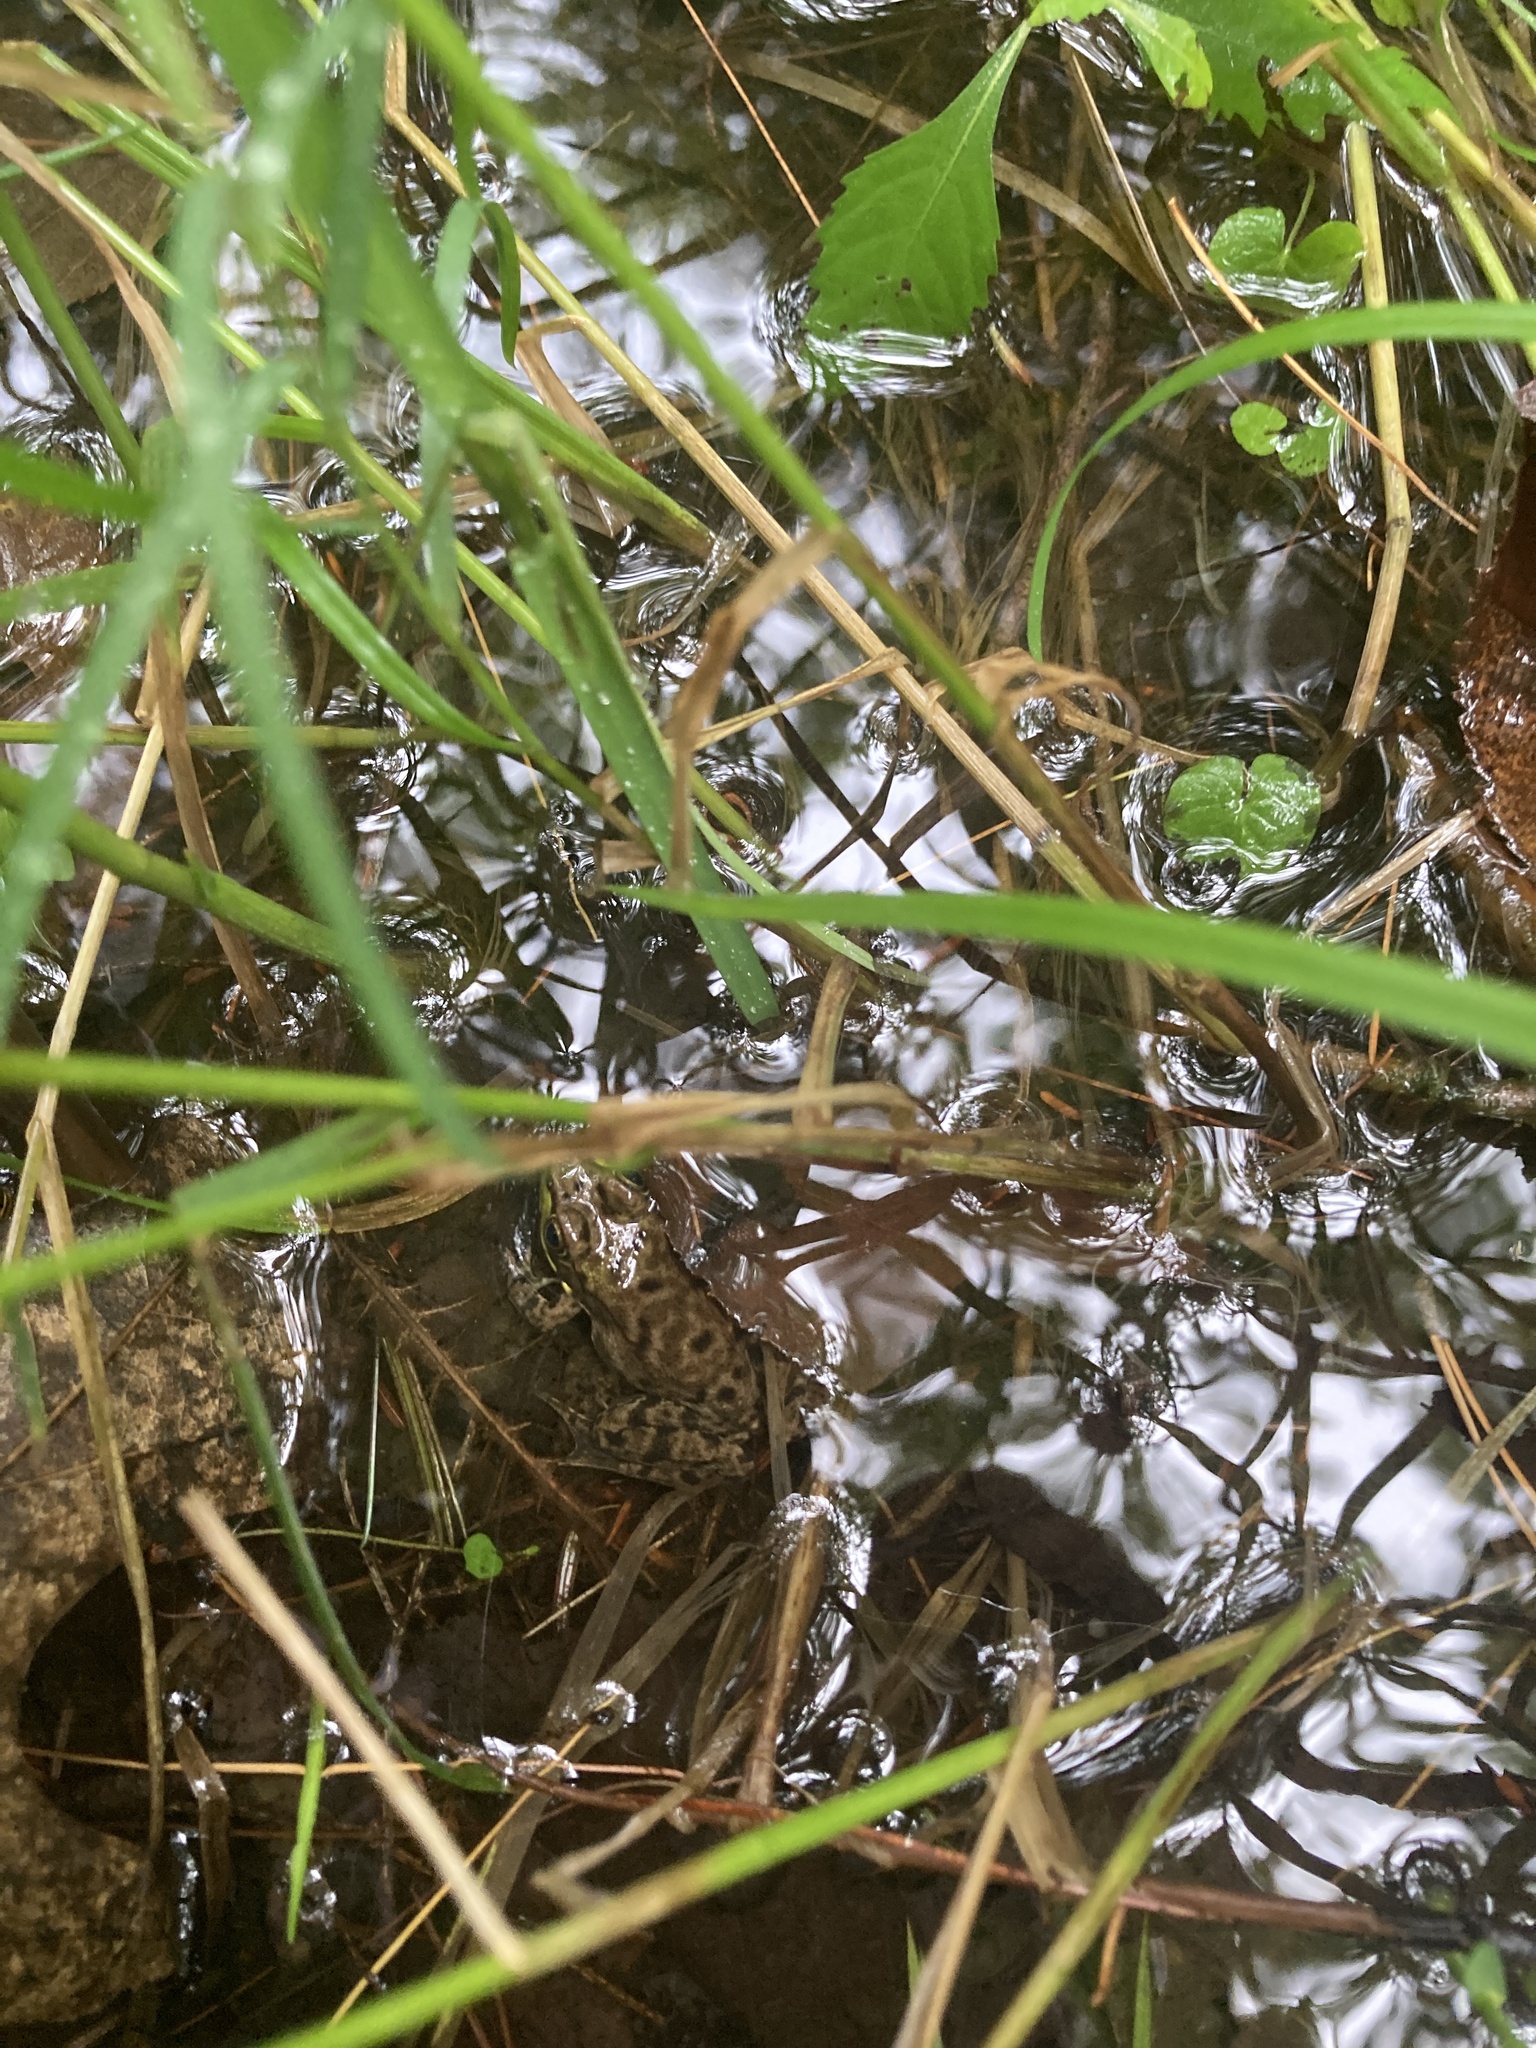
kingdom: Animalia
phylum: Chordata
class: Amphibia
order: Anura
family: Ranidae
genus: Lithobates
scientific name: Lithobates clamitans
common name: Green frog
